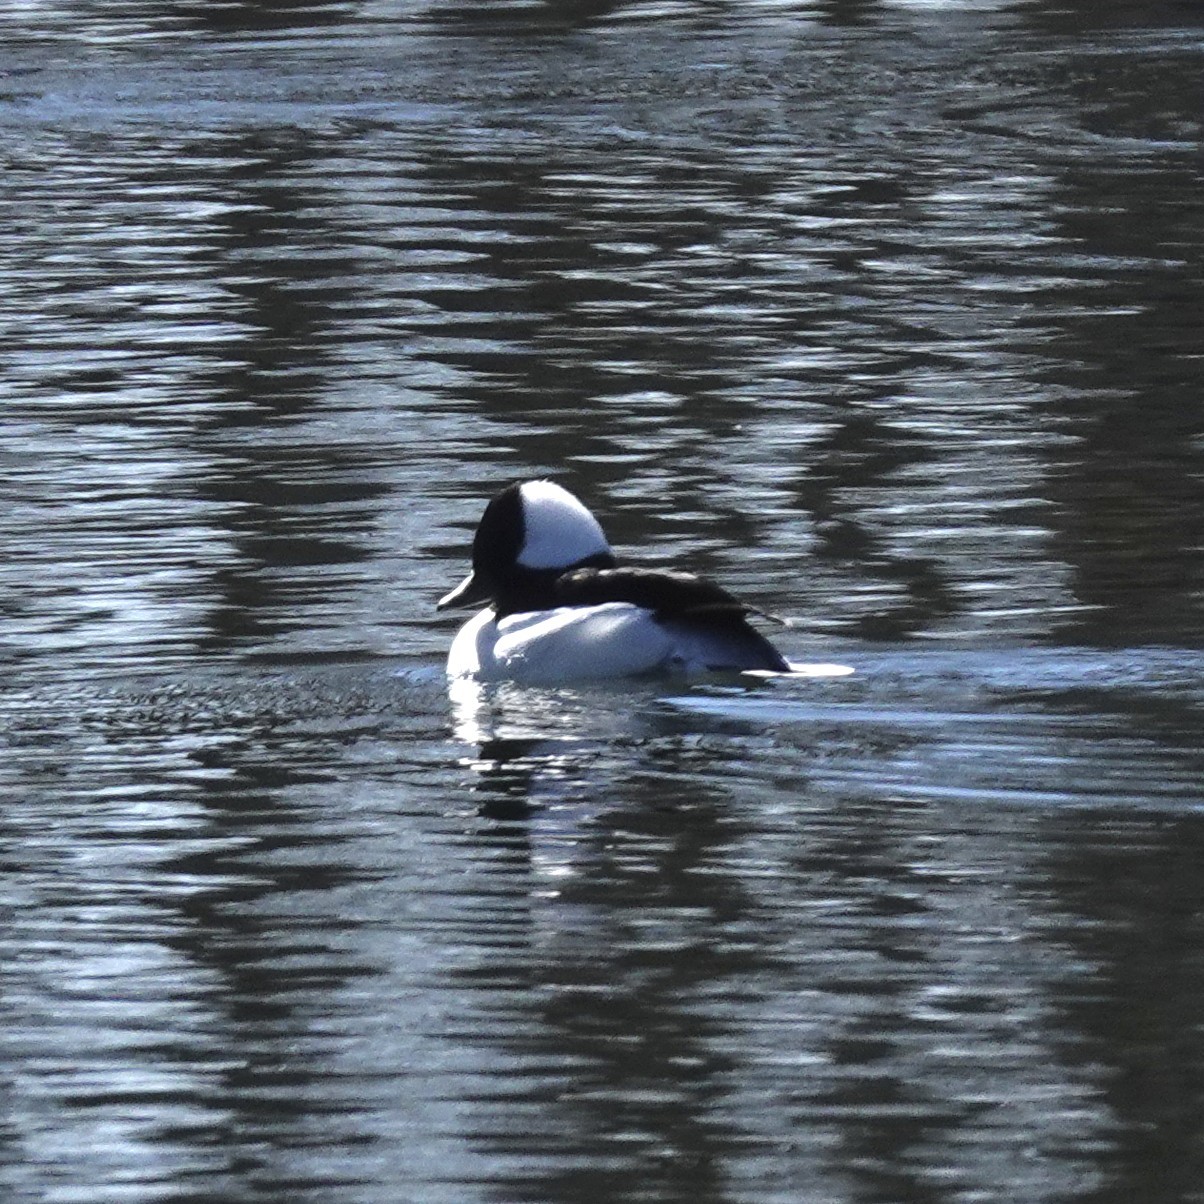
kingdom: Animalia
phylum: Chordata
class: Aves
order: Anseriformes
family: Anatidae
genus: Bucephala
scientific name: Bucephala albeola
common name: Bufflehead
